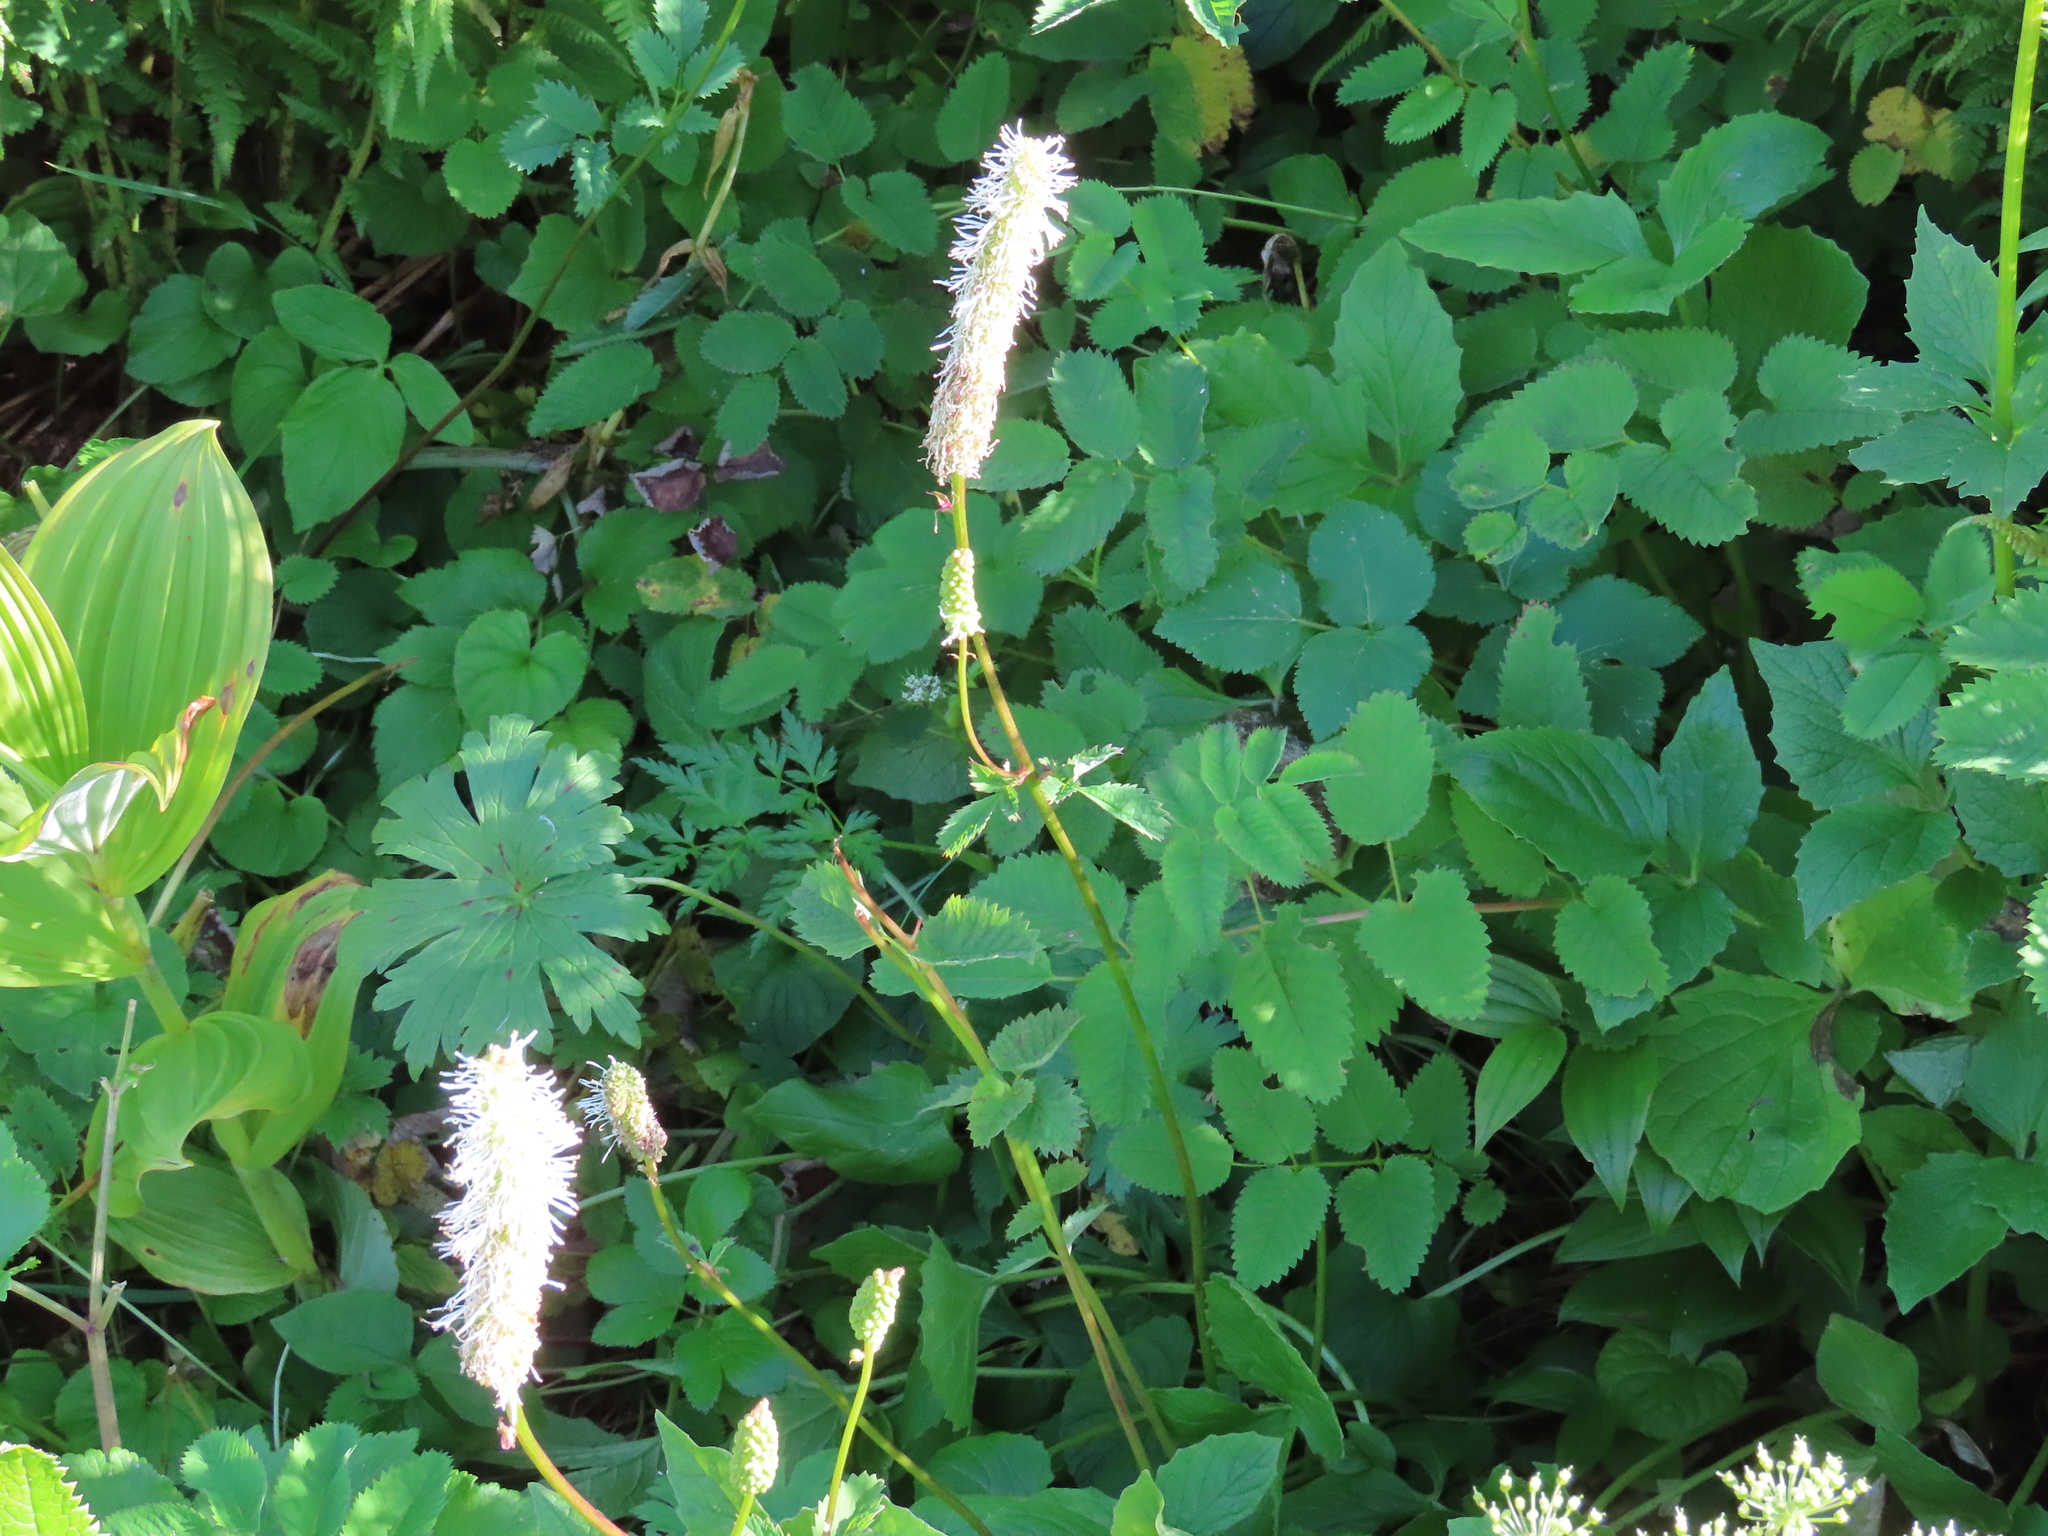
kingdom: Plantae
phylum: Tracheophyta
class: Magnoliopsida
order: Rosales
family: Rosaceae
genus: Sanguisorba
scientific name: Sanguisorba stipulata
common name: Sitka burnet
